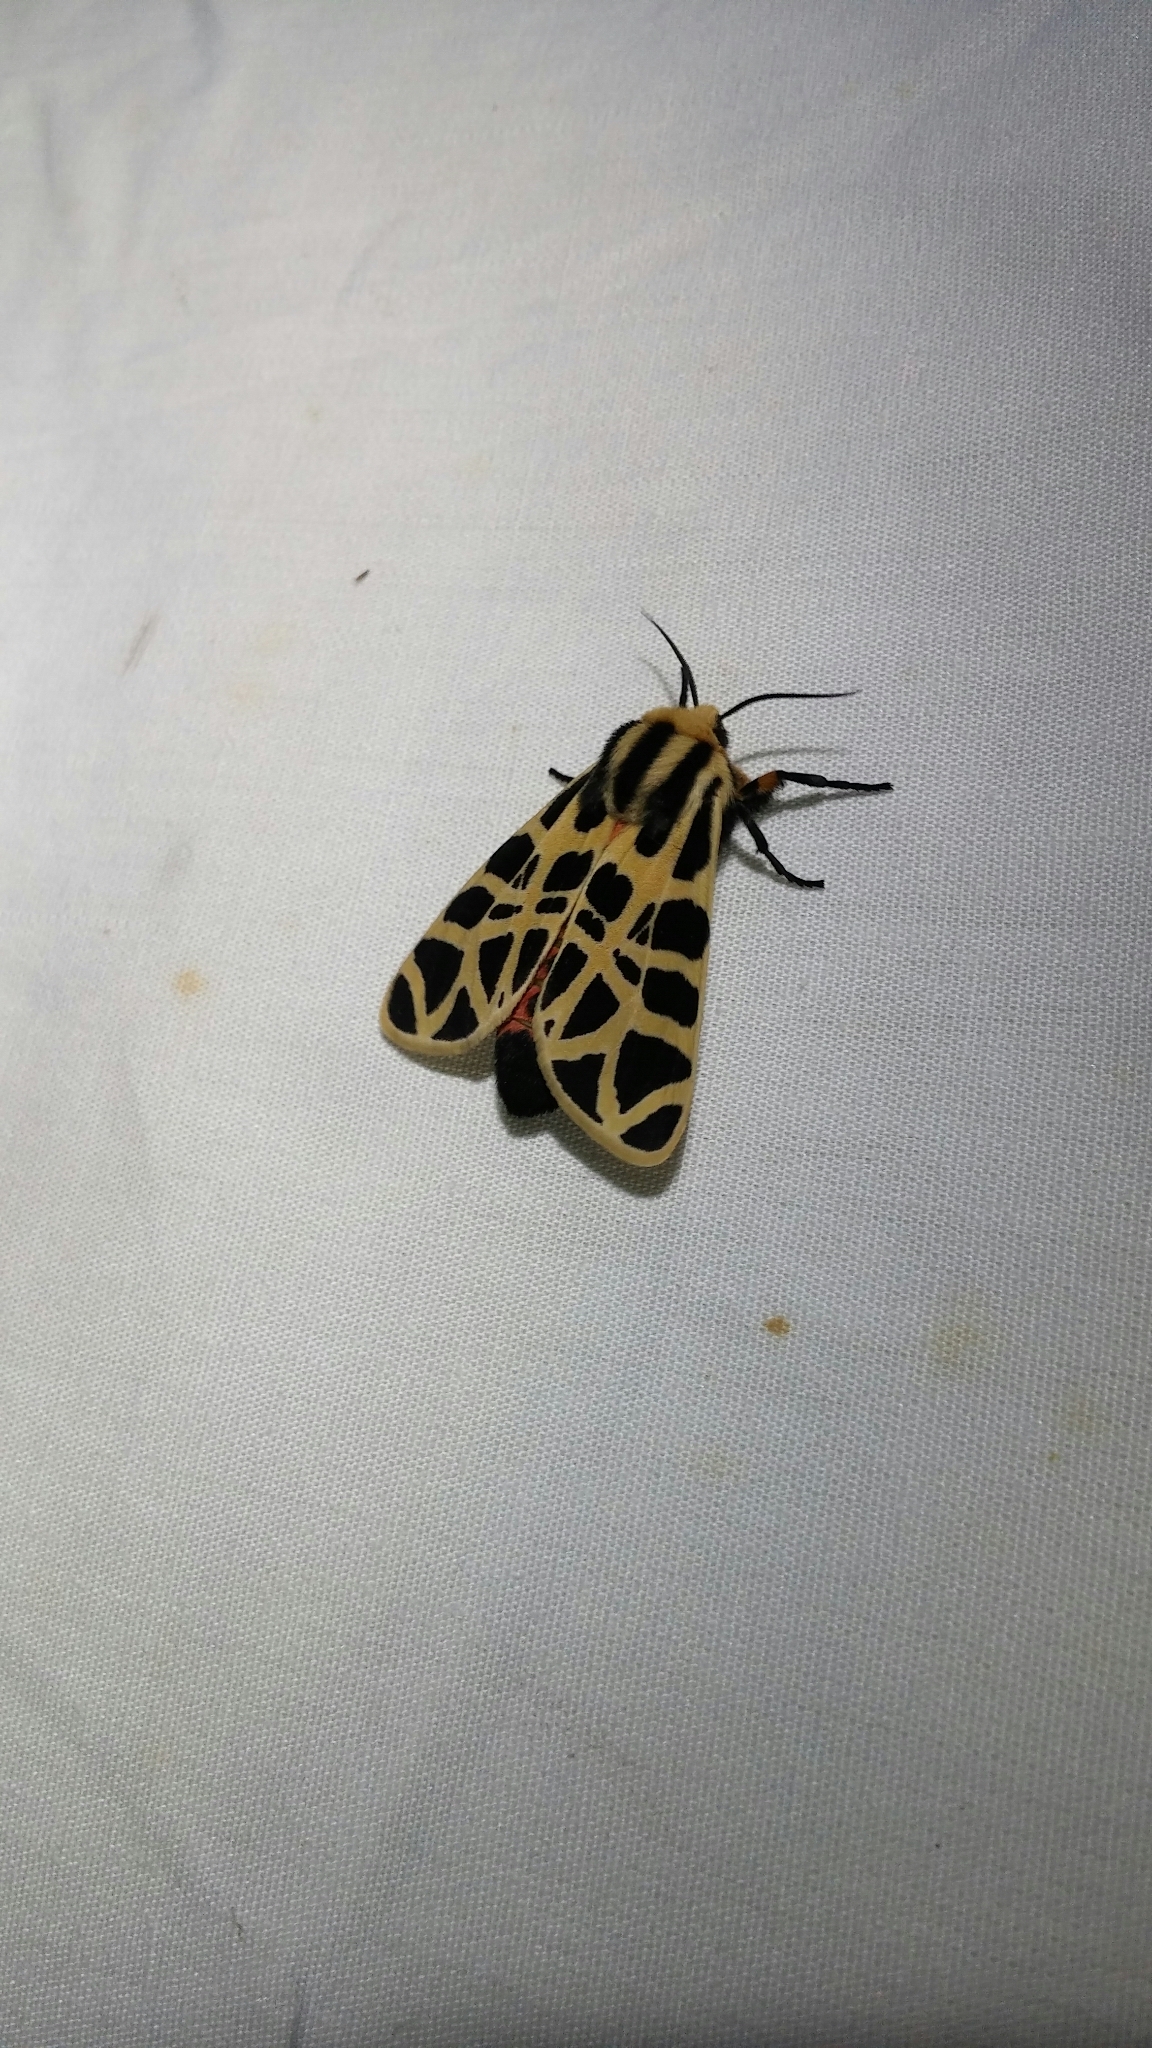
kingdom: Animalia
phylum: Arthropoda
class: Insecta
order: Lepidoptera
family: Erebidae
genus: Apantesis
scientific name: Apantesis
